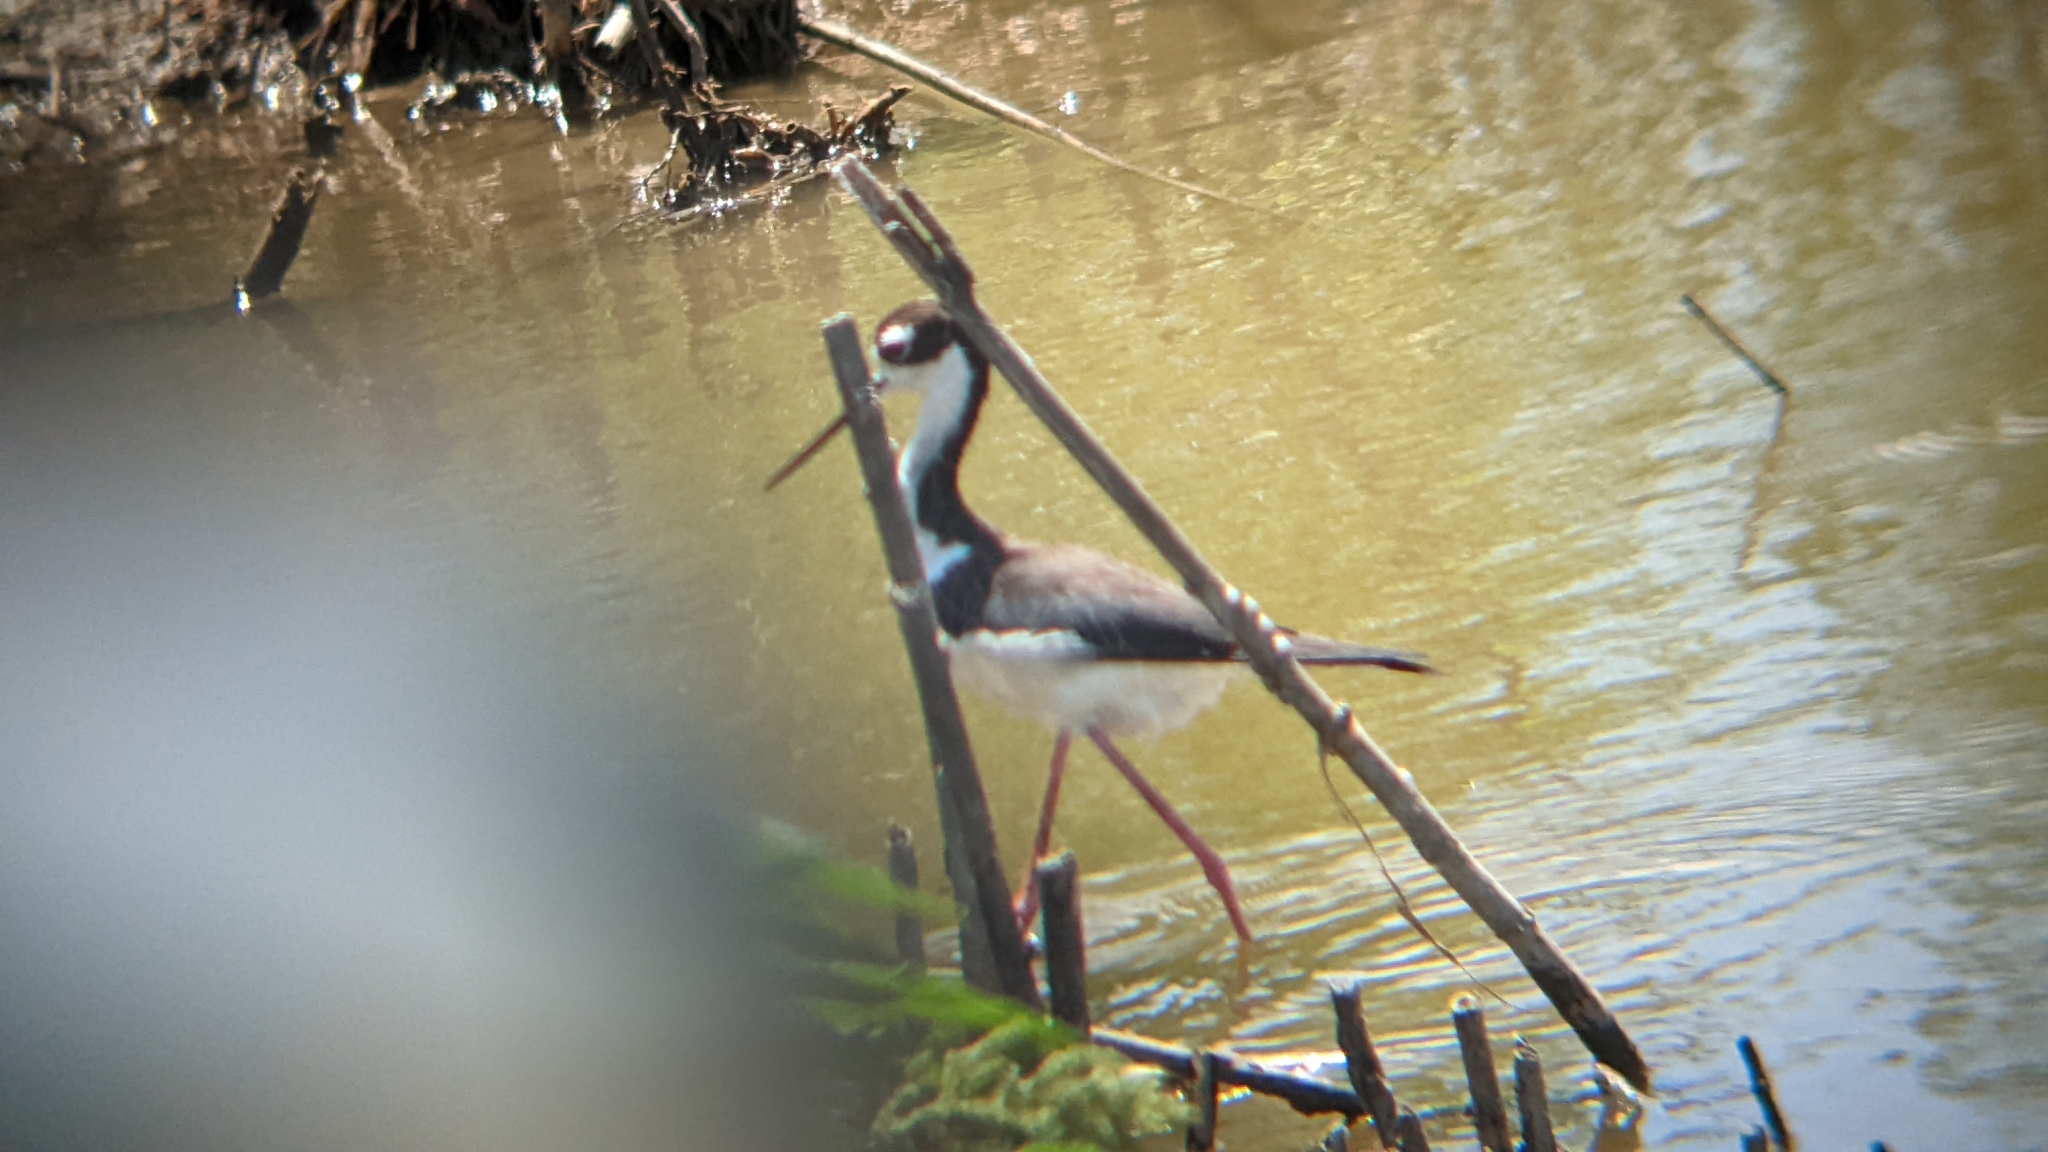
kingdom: Animalia
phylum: Chordata
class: Aves
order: Charadriiformes
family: Recurvirostridae
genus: Himantopus
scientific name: Himantopus mexicanus
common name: Black-necked stilt
